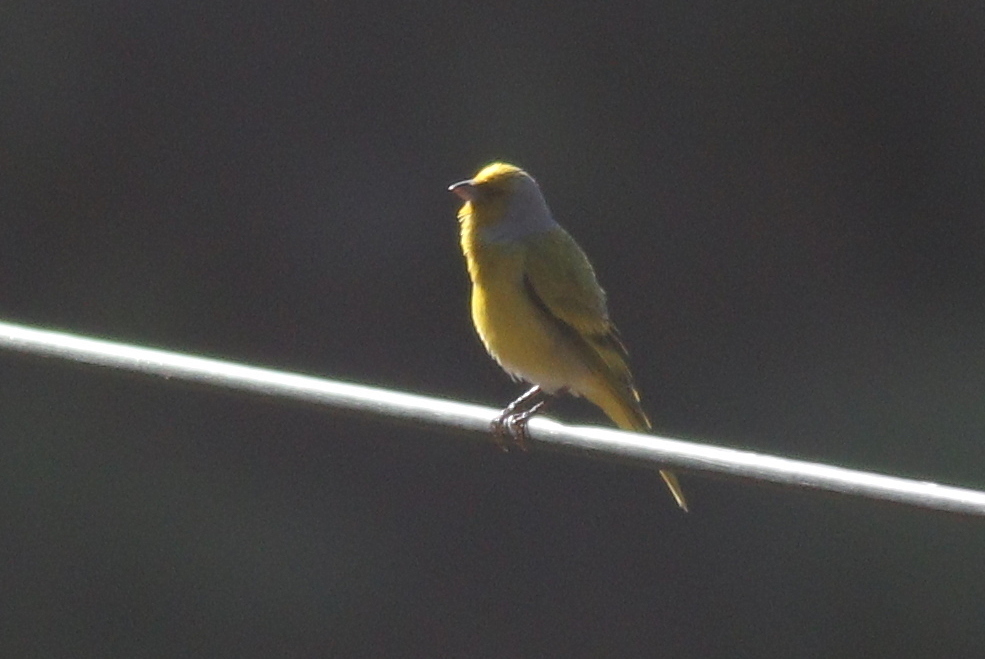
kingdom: Animalia
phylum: Chordata
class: Aves
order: Passeriformes
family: Fringillidae
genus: Serinus
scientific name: Serinus canicollis
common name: Cape canary
